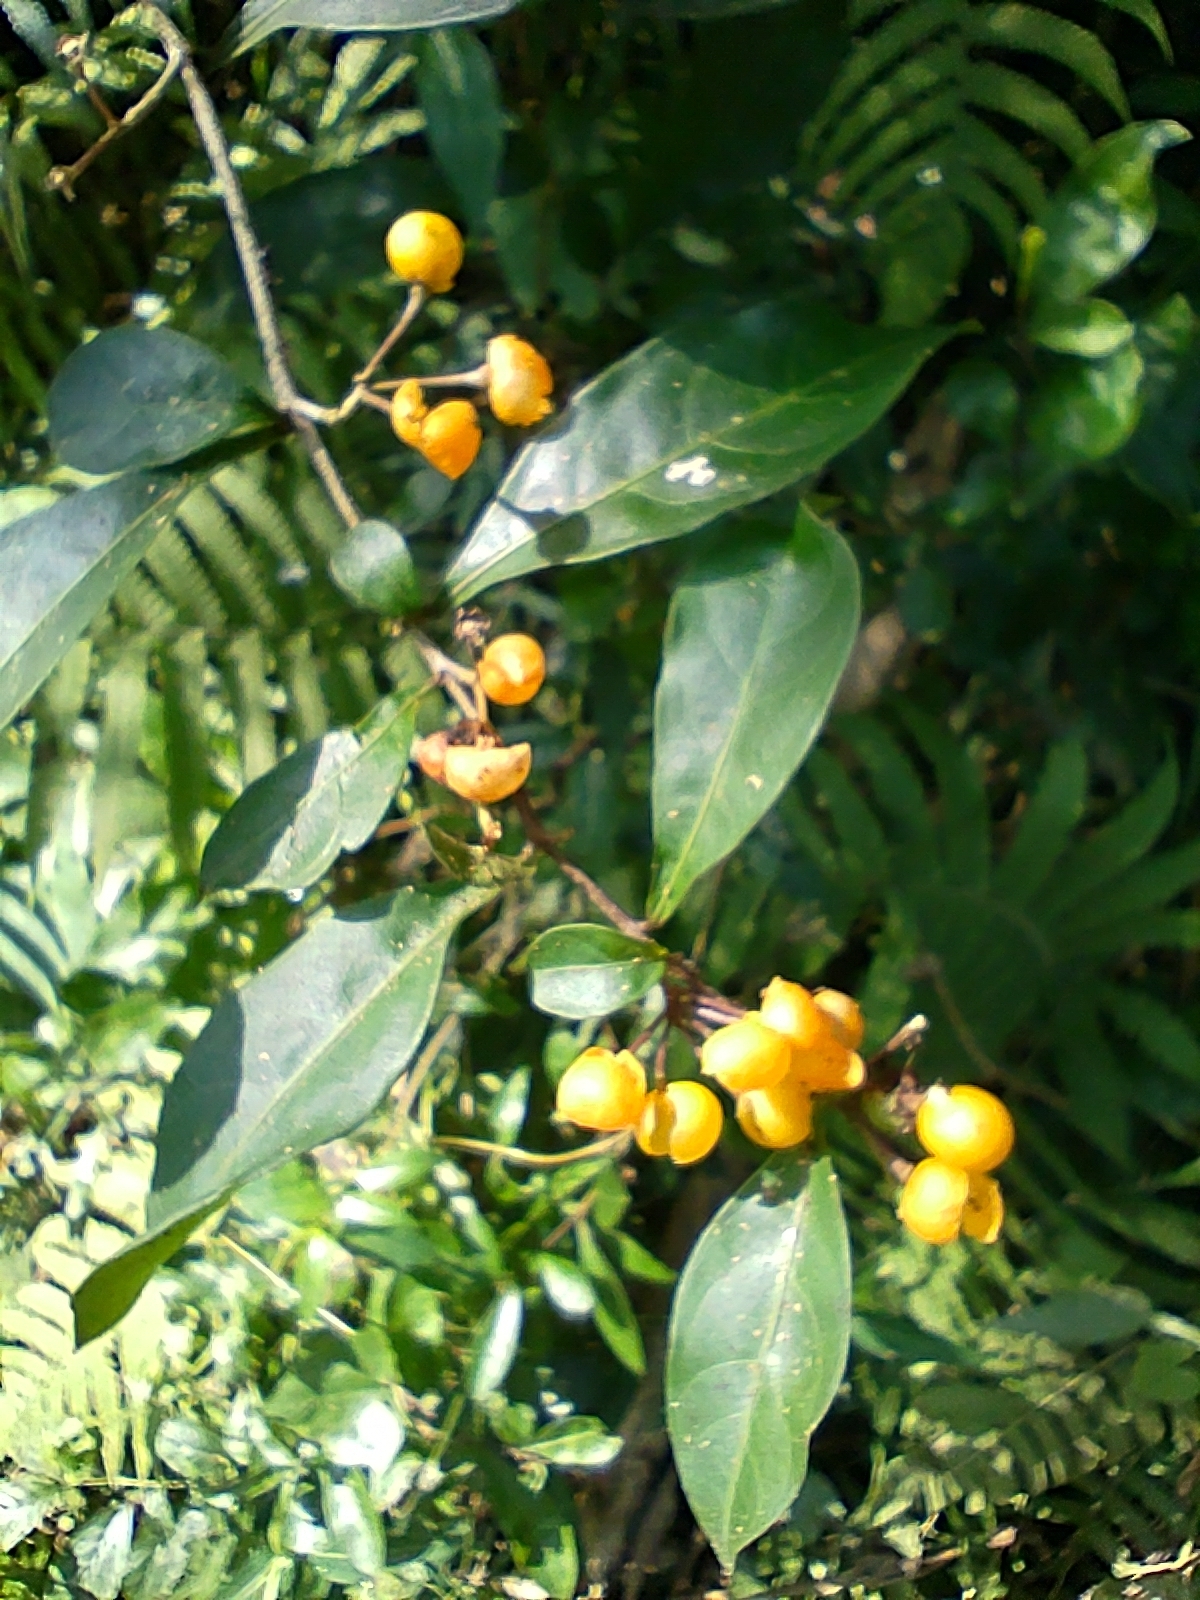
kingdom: Plantae
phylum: Tracheophyta
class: Magnoliopsida
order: Solanales
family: Solanaceae
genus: Solanum
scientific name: Solanum diphyllum
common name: Twoleaf nightshade
